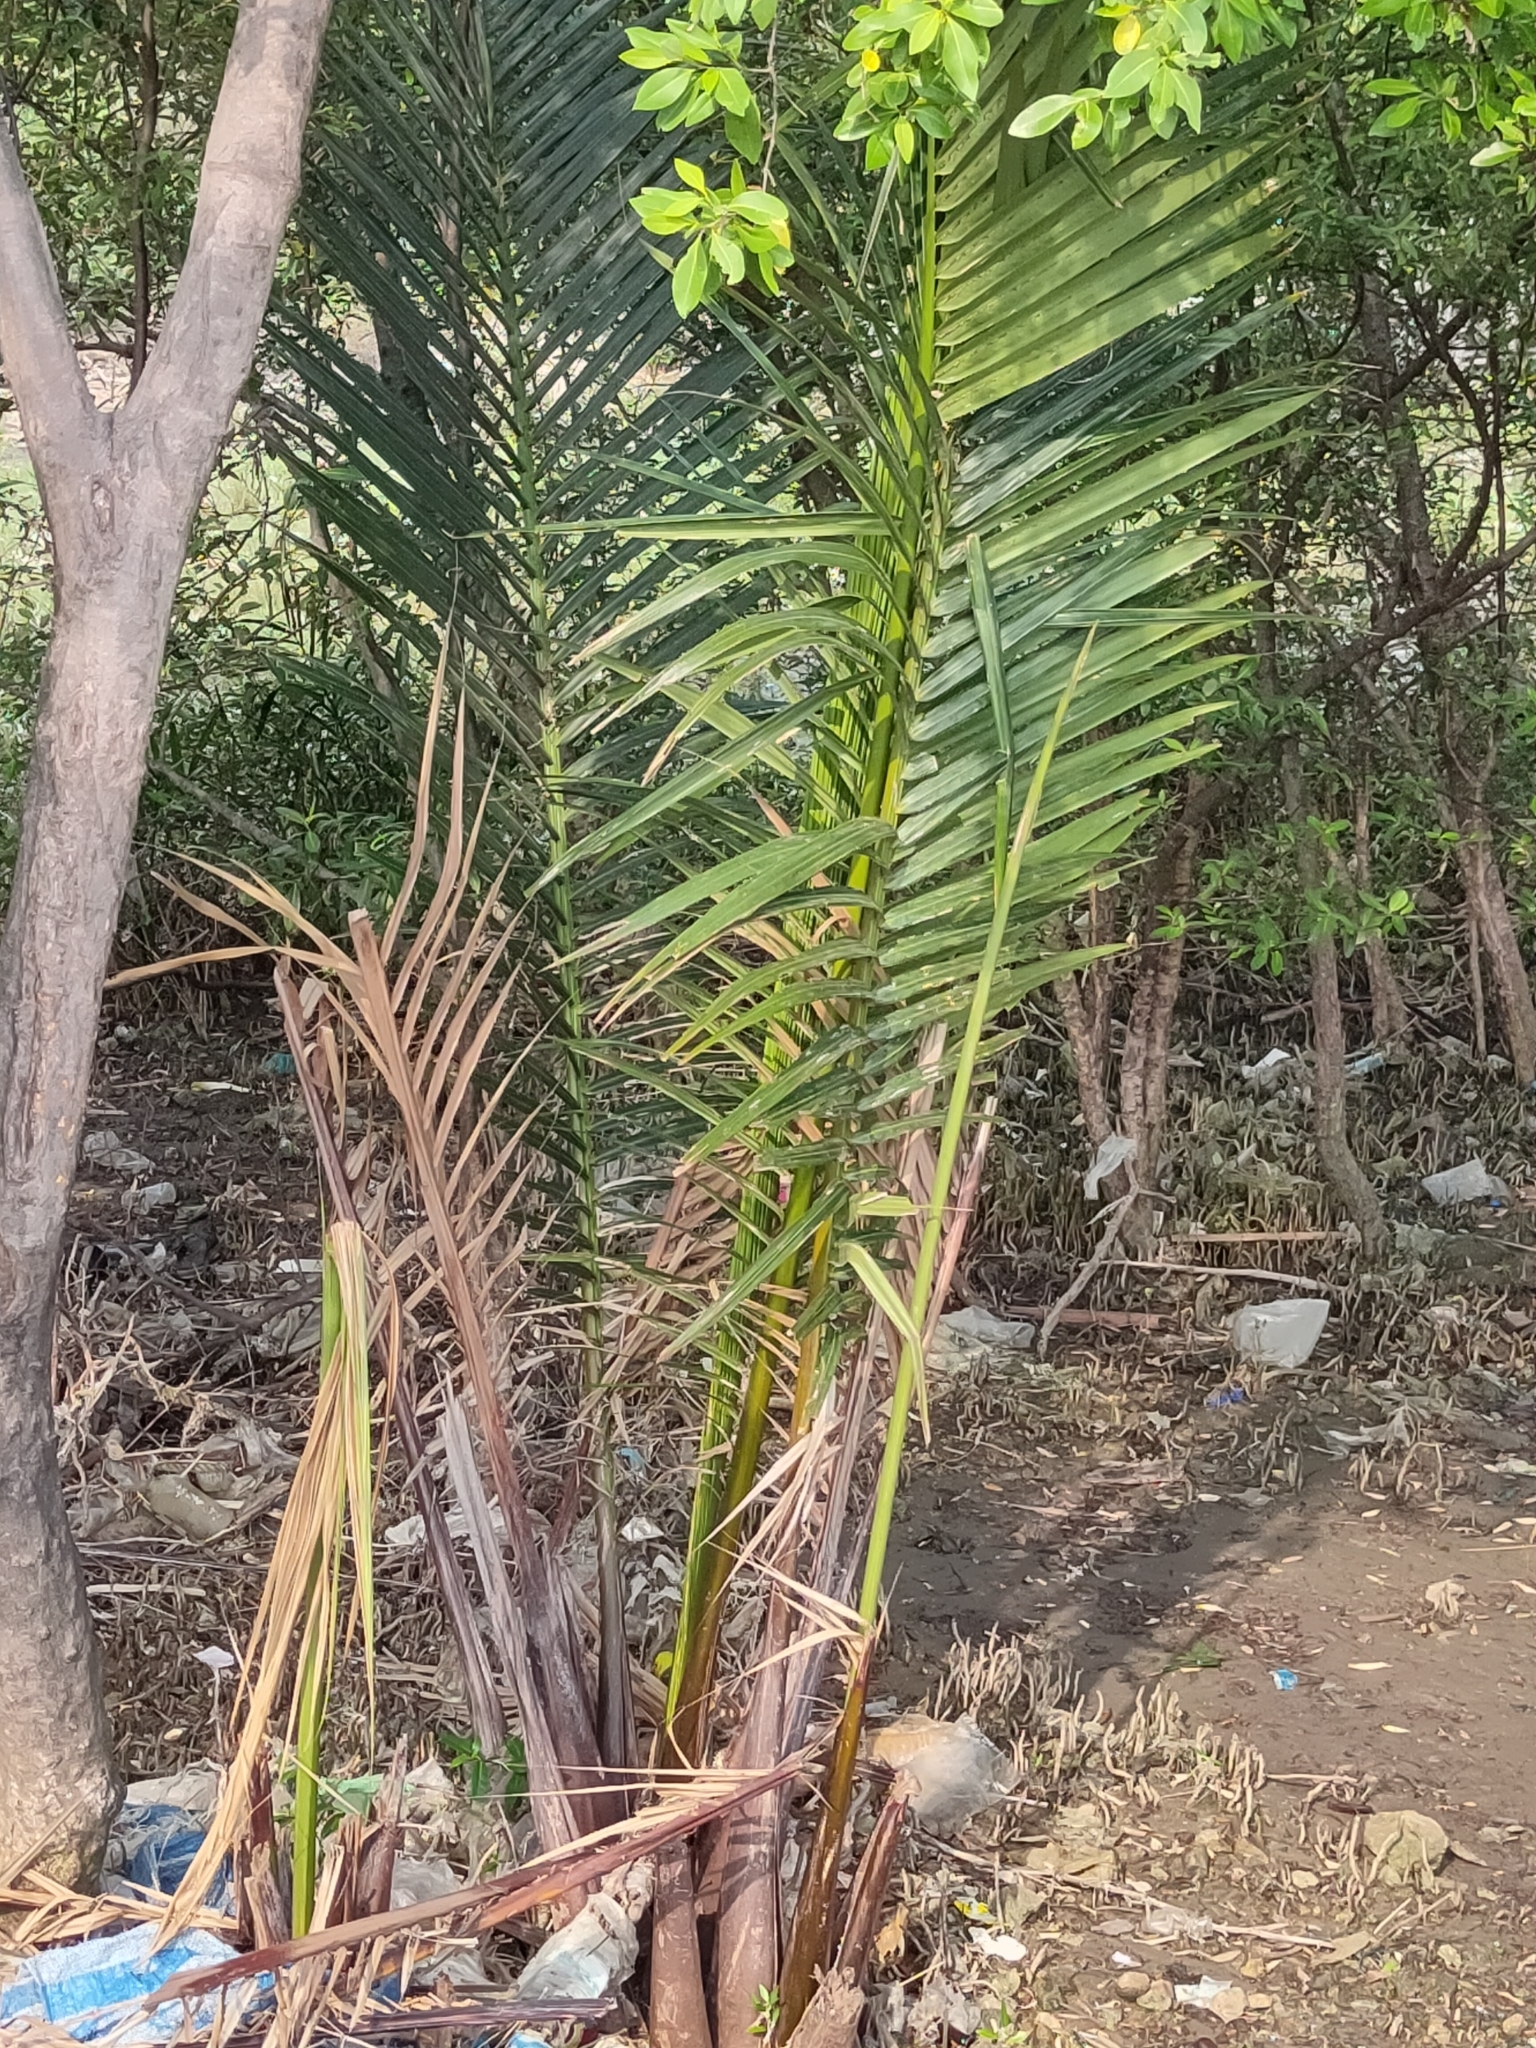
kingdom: Plantae
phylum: Tracheophyta
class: Liliopsida
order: Arecales
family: Arecaceae
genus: Nypa
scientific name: Nypa fruticans
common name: Mangrove palm
